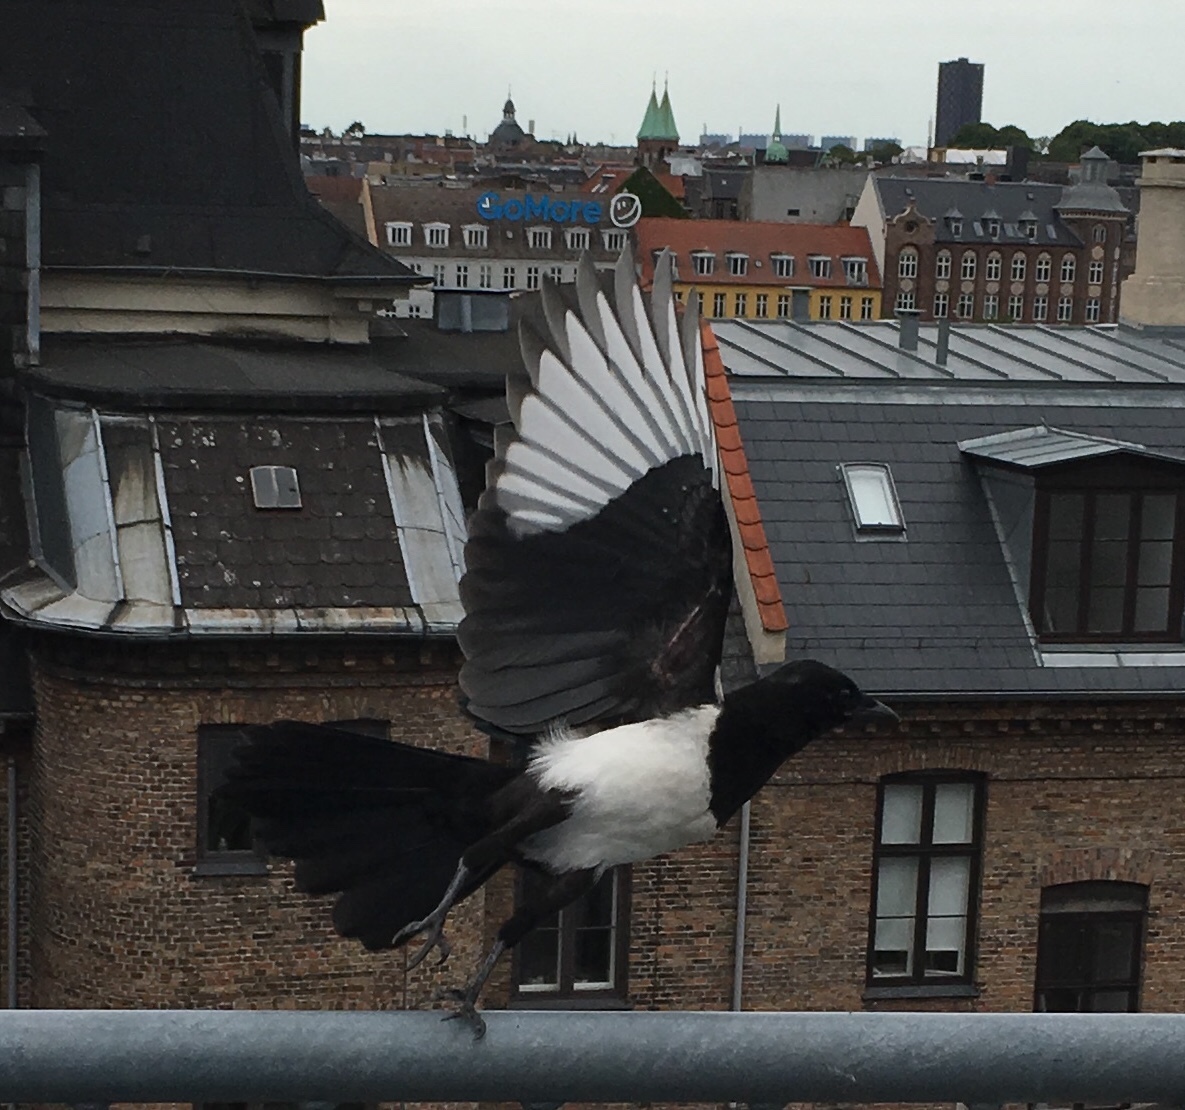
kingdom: Animalia
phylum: Chordata
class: Aves
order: Passeriformes
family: Corvidae
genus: Pica
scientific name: Pica pica
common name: Eurasian magpie
